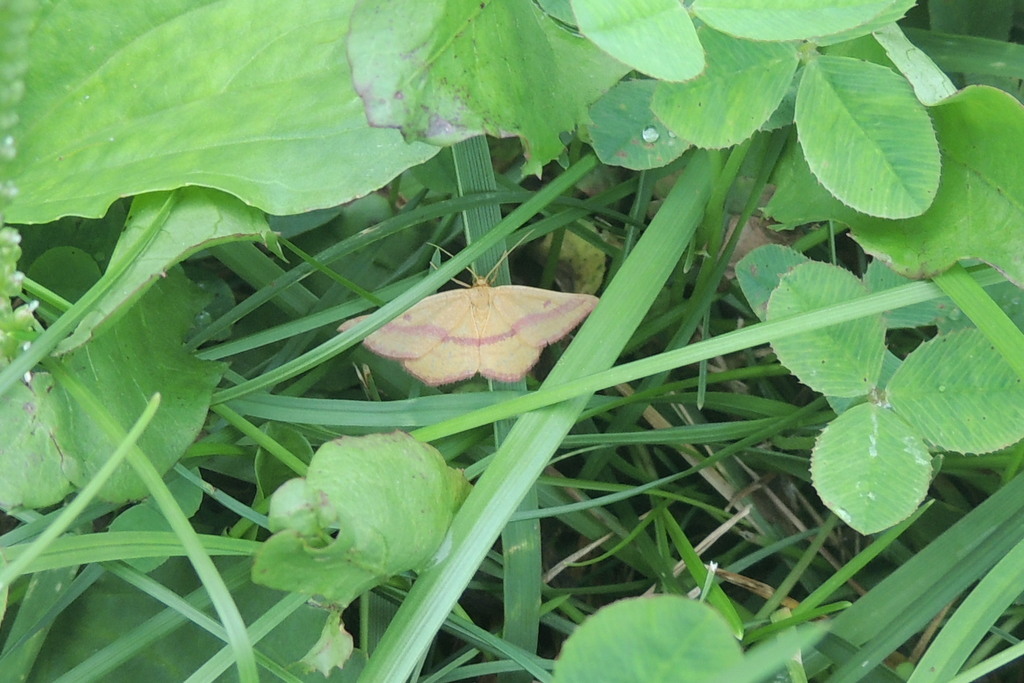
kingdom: Animalia
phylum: Arthropoda
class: Insecta
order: Lepidoptera
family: Geometridae
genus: Haematopis
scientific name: Haematopis grataria
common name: Chickweed geometer
